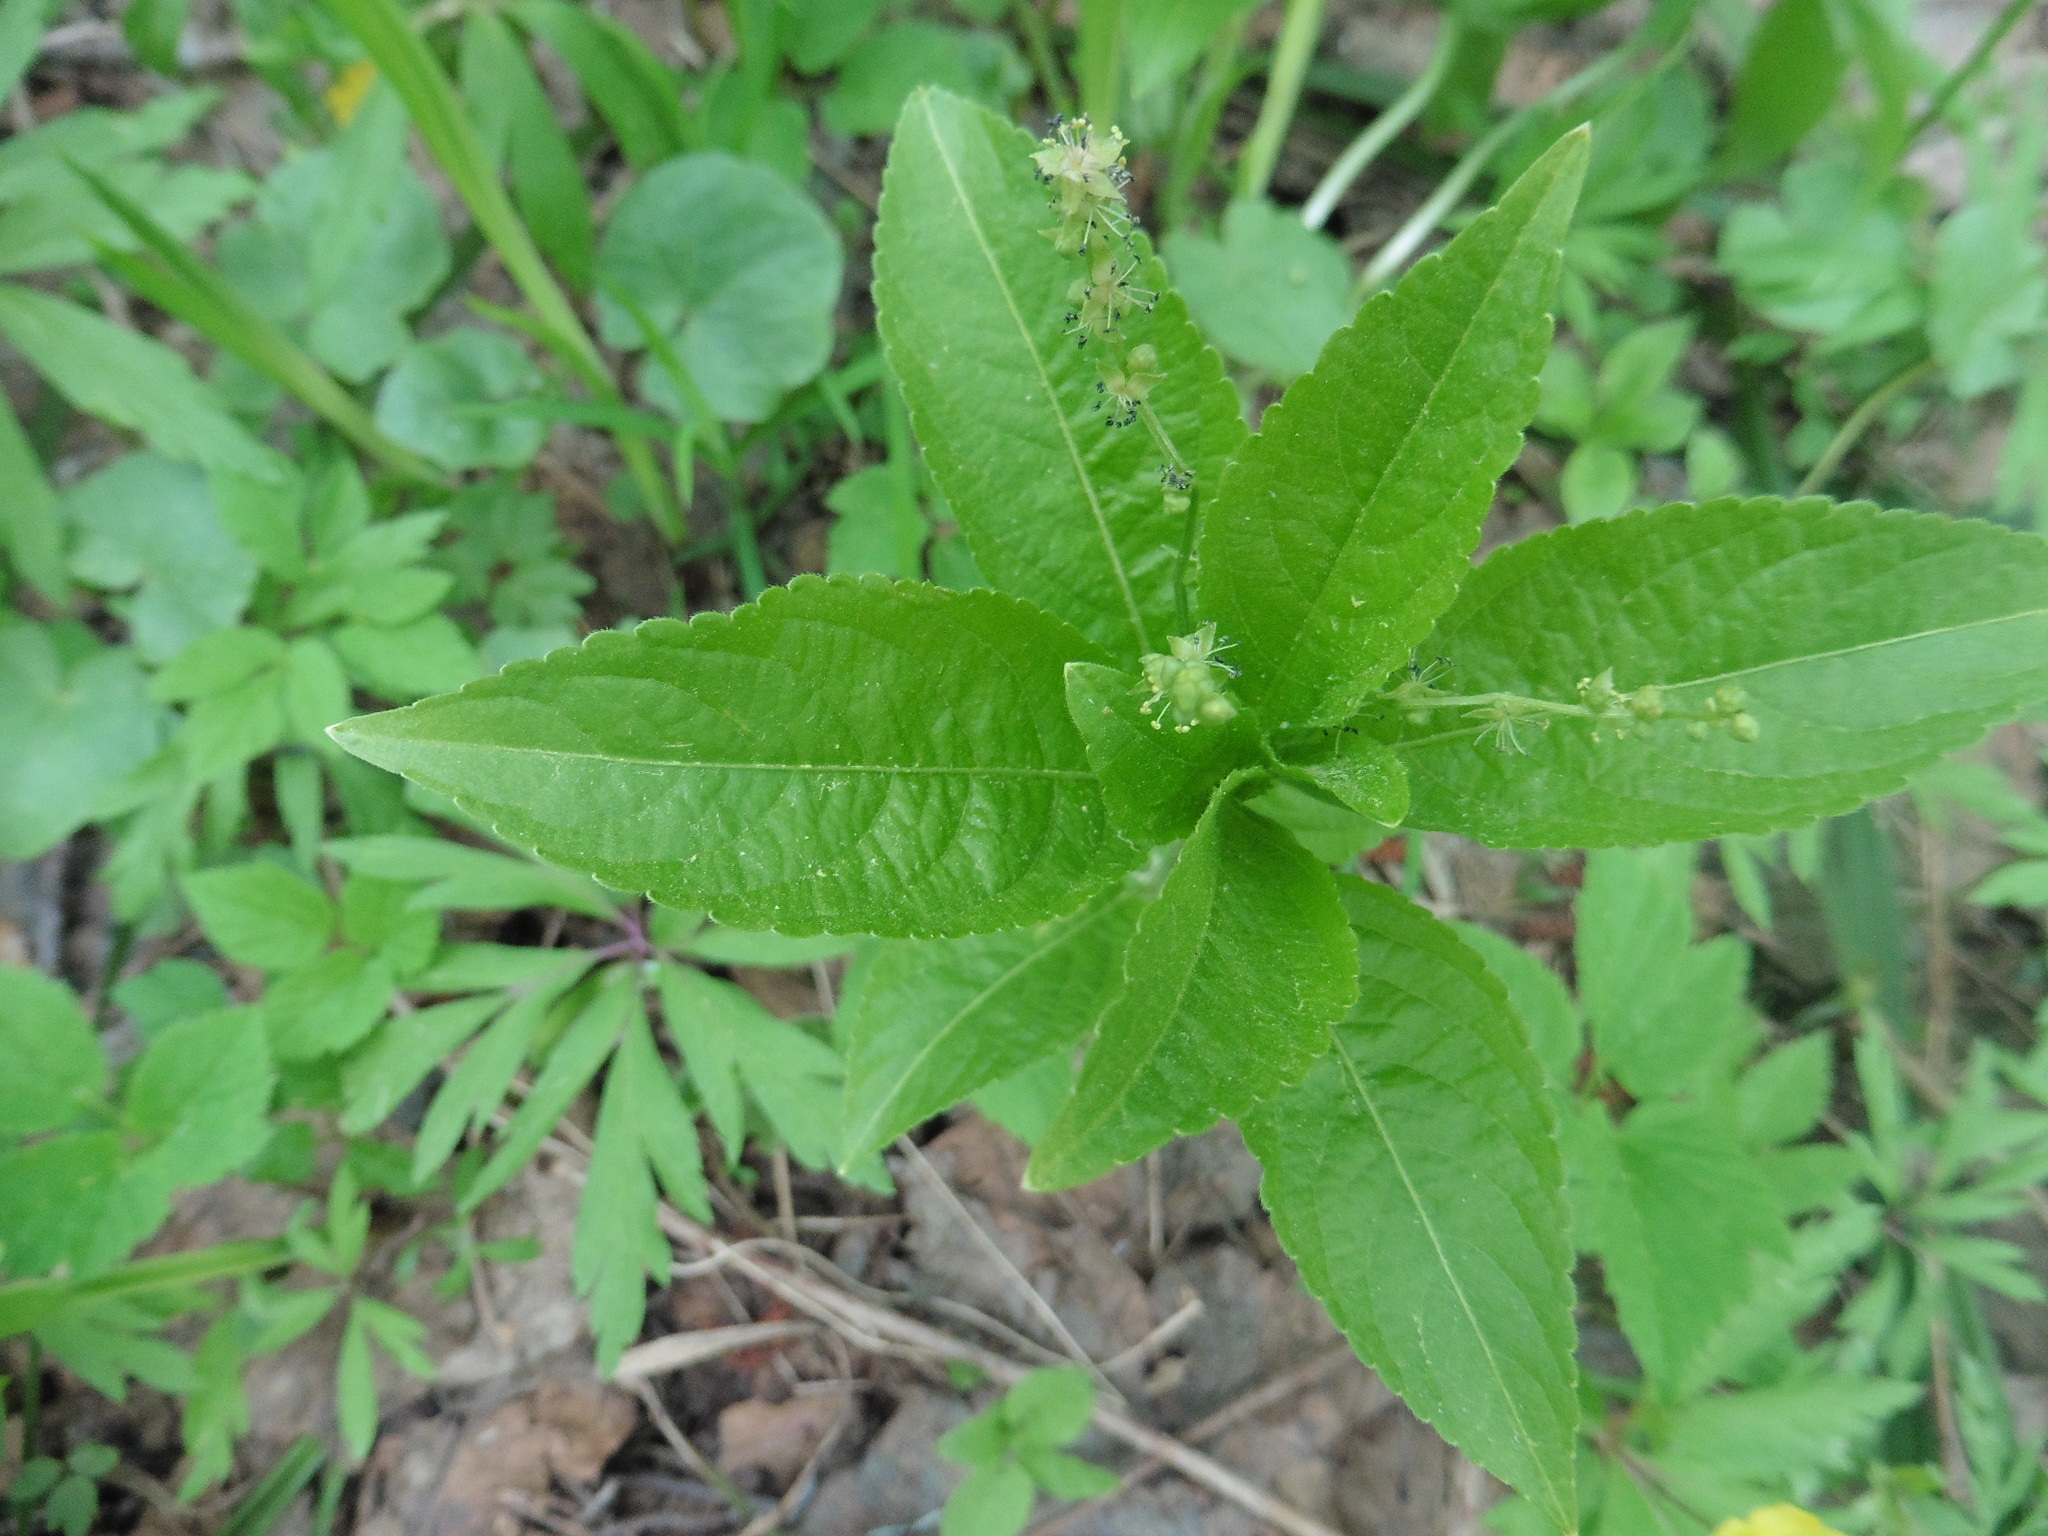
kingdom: Plantae
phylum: Tracheophyta
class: Magnoliopsida
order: Malpighiales
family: Euphorbiaceae
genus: Mercurialis
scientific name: Mercurialis perennis
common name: Dog mercury
